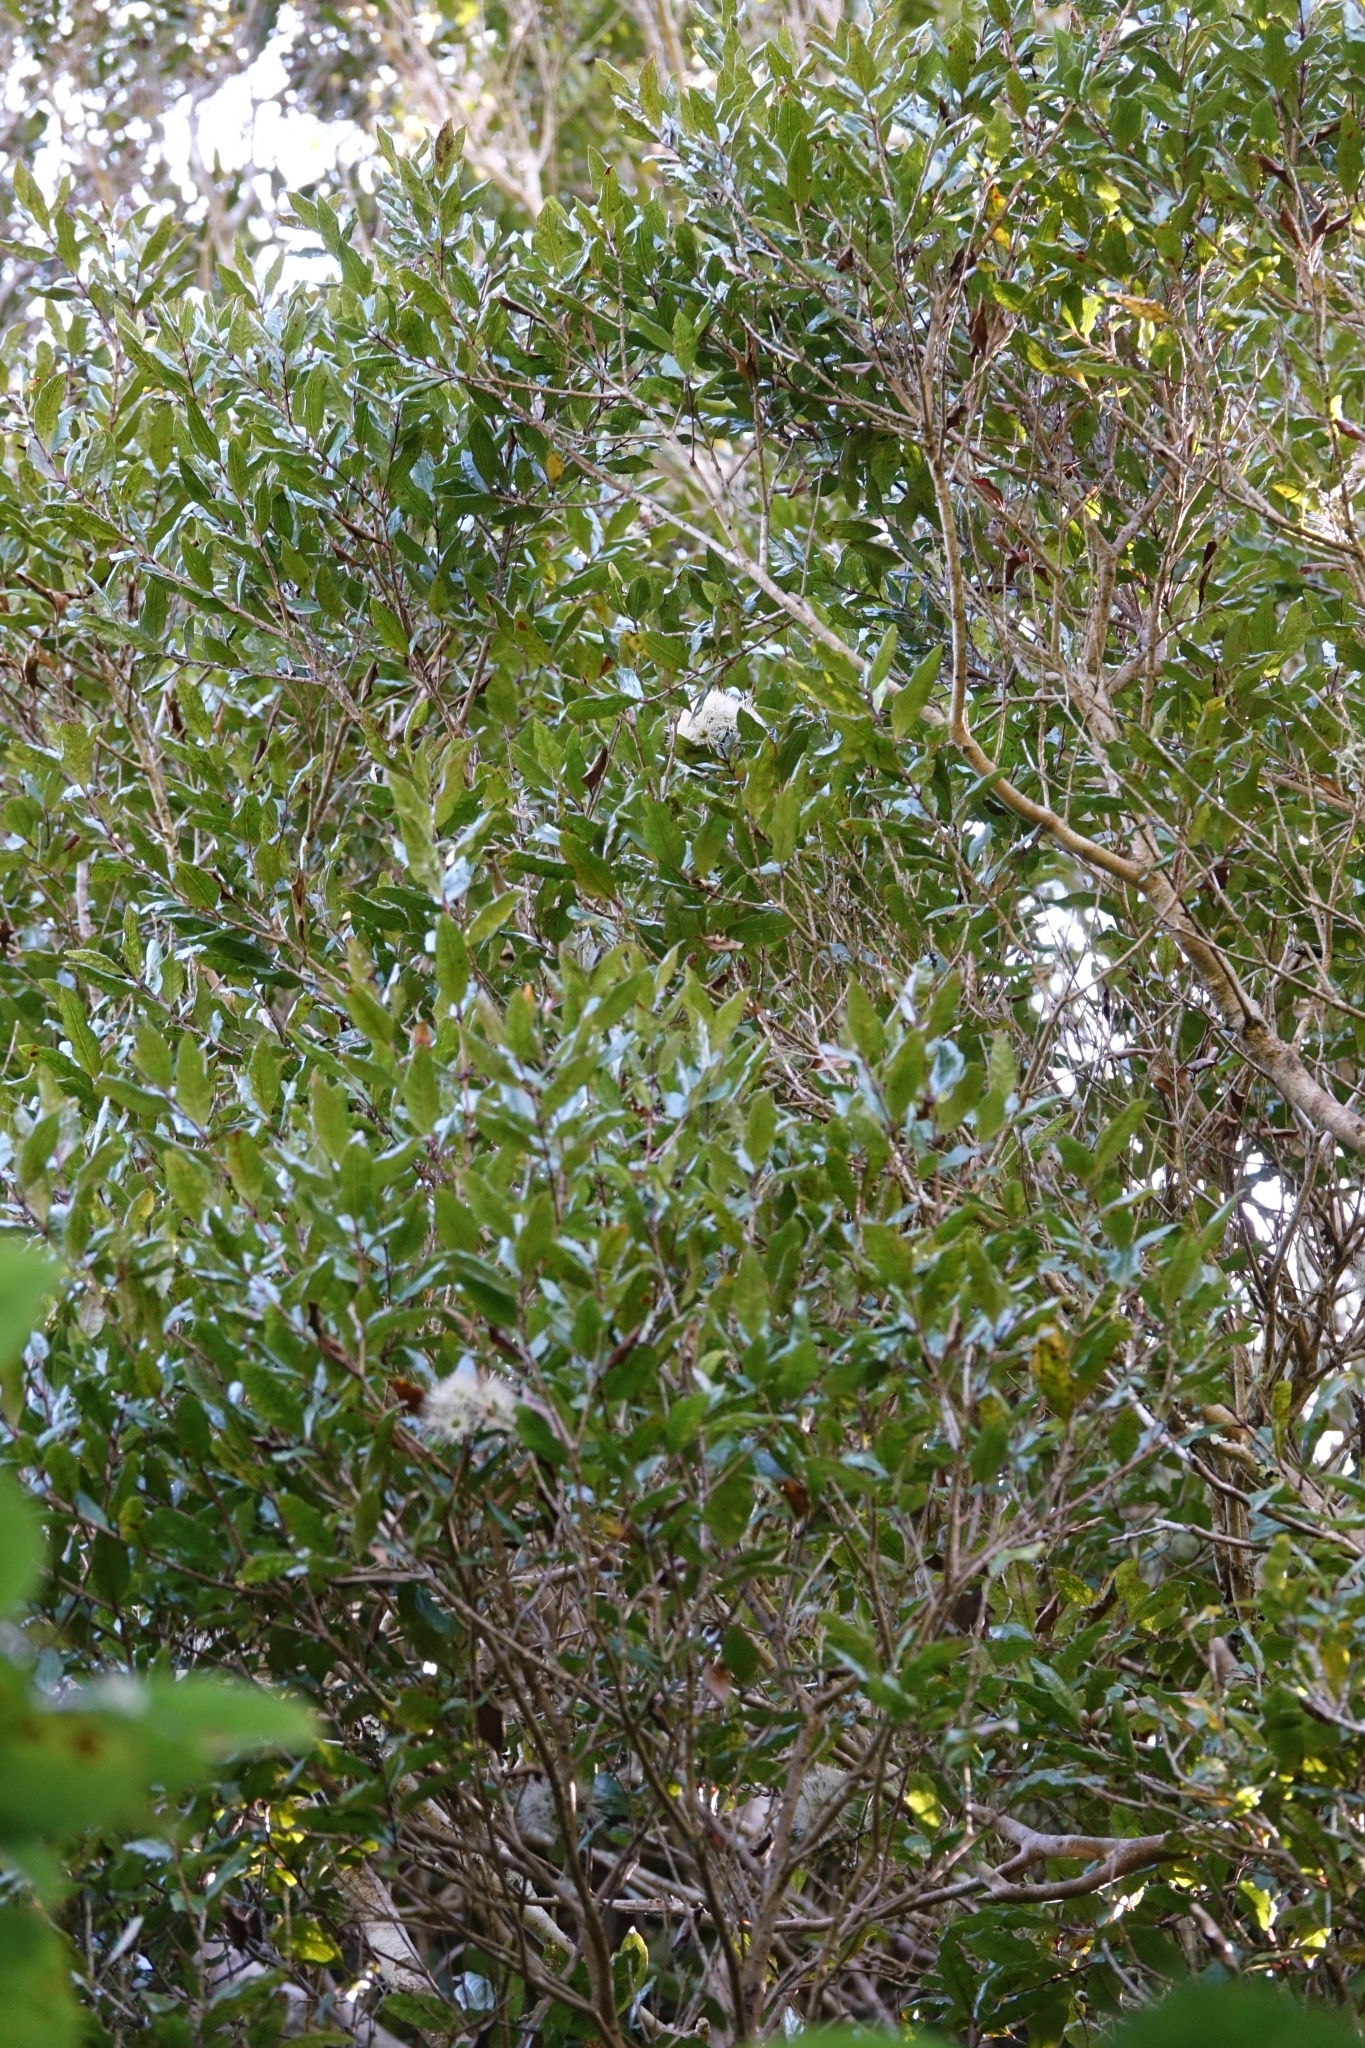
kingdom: Plantae
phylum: Tracheophyta
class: Magnoliopsida
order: Myrtales
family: Myrtaceae
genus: Syzygium
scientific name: Syzygium maire
